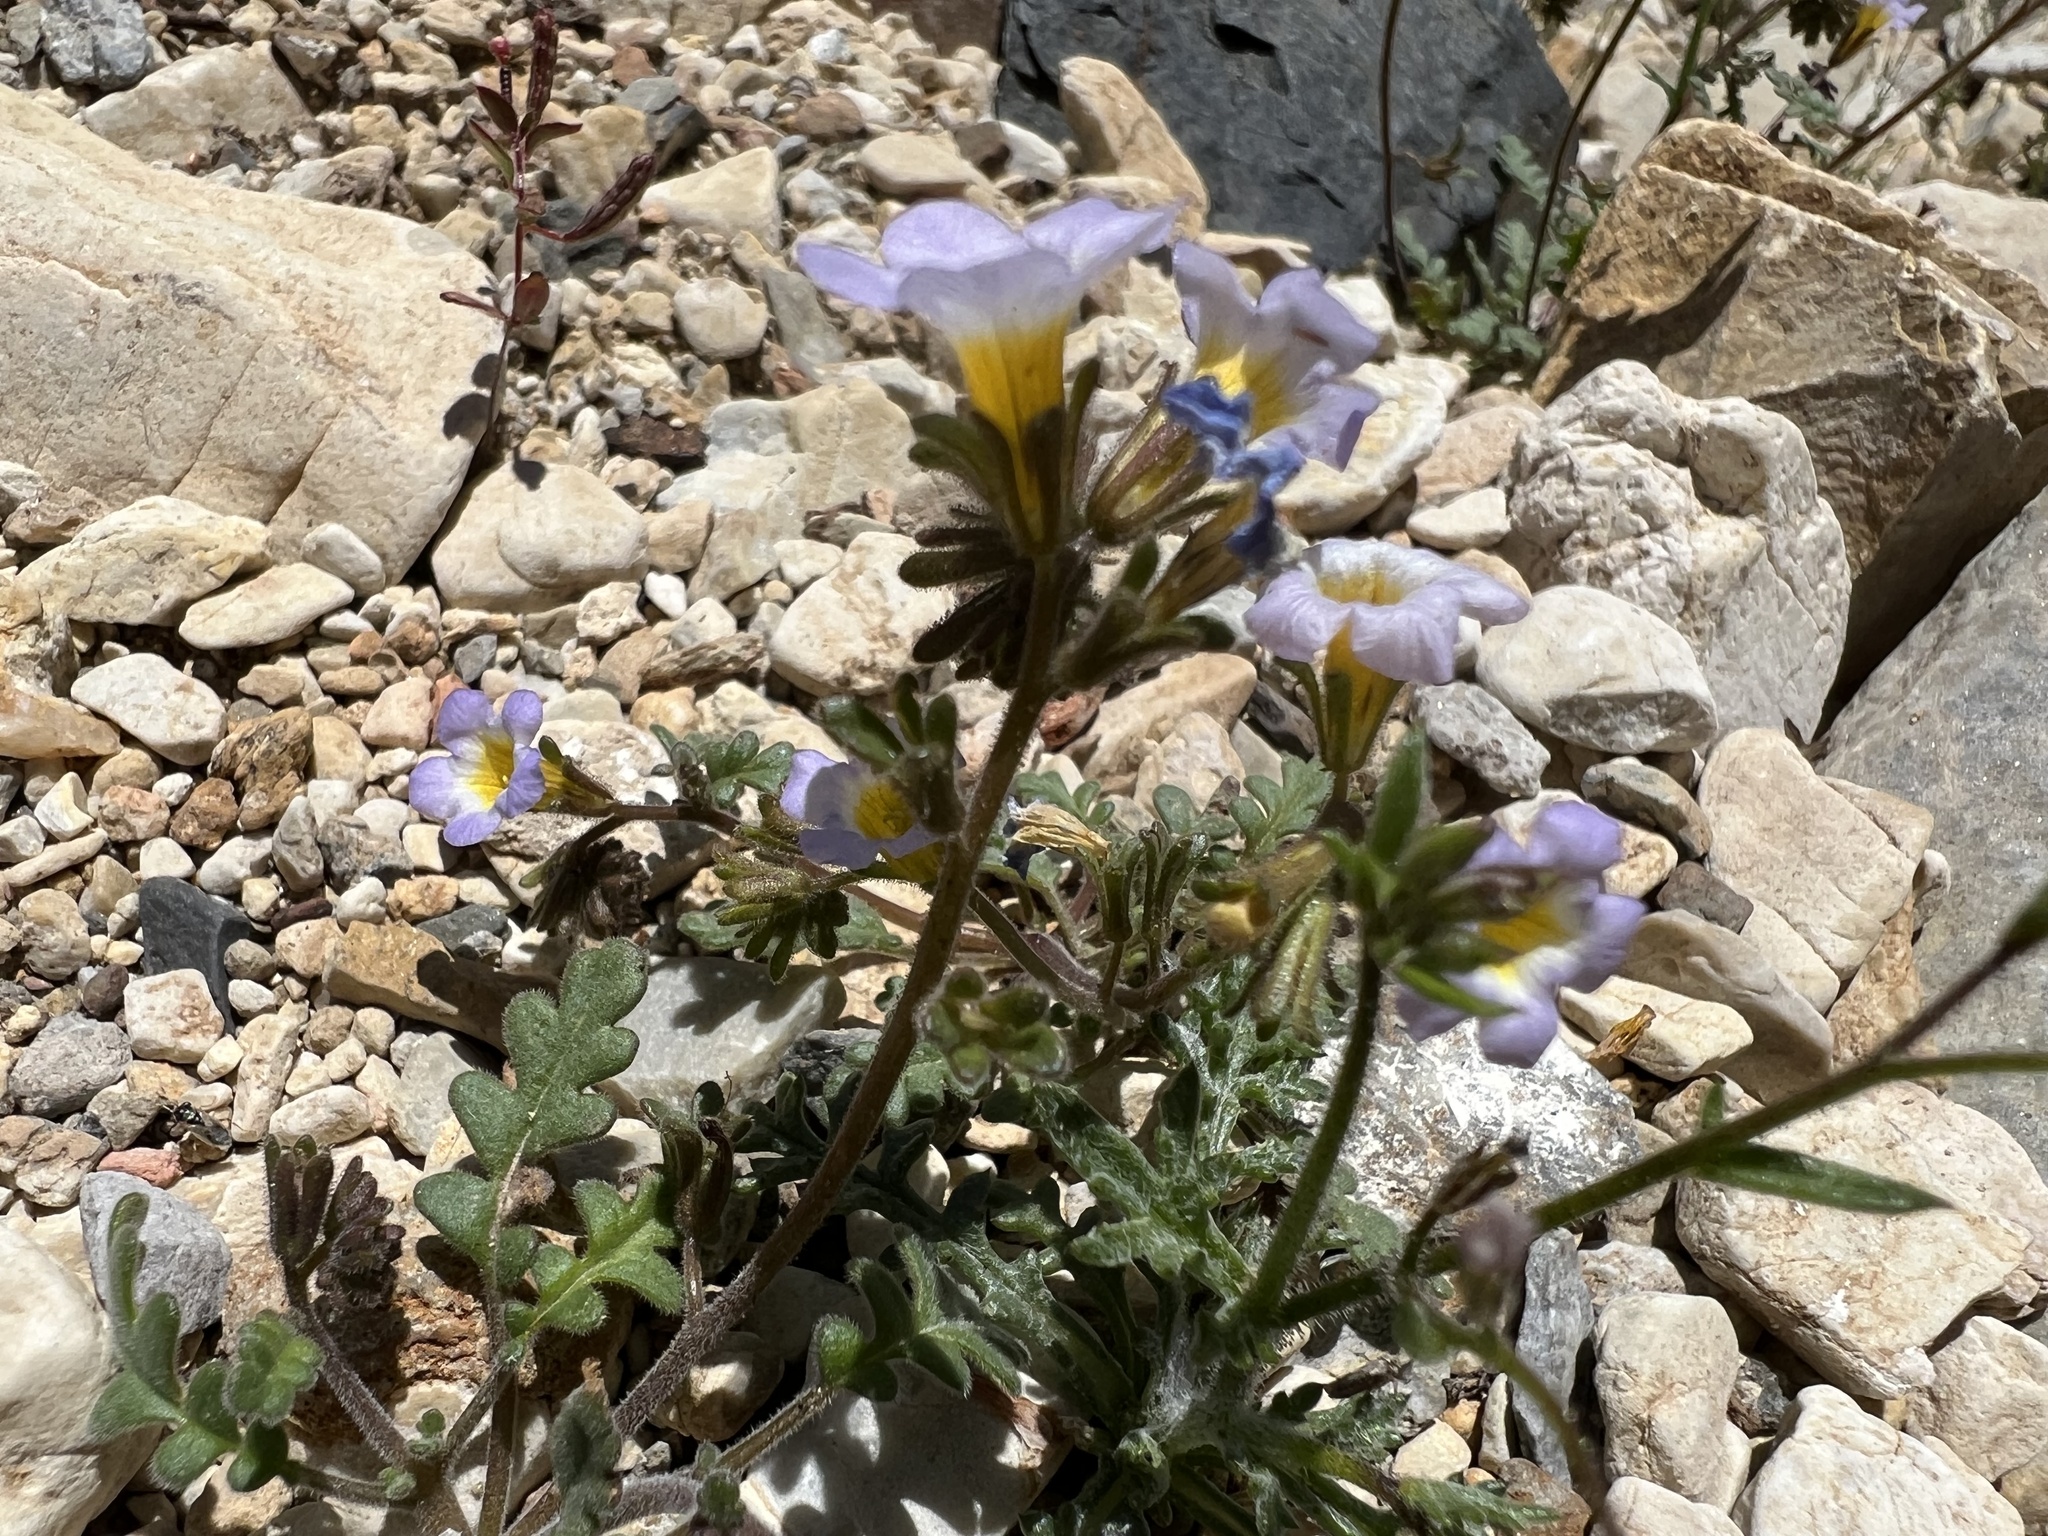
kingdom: Plantae
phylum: Tracheophyta
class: Magnoliopsida
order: Boraginales
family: Hydrophyllaceae
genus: Phacelia
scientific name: Phacelia fremontii
